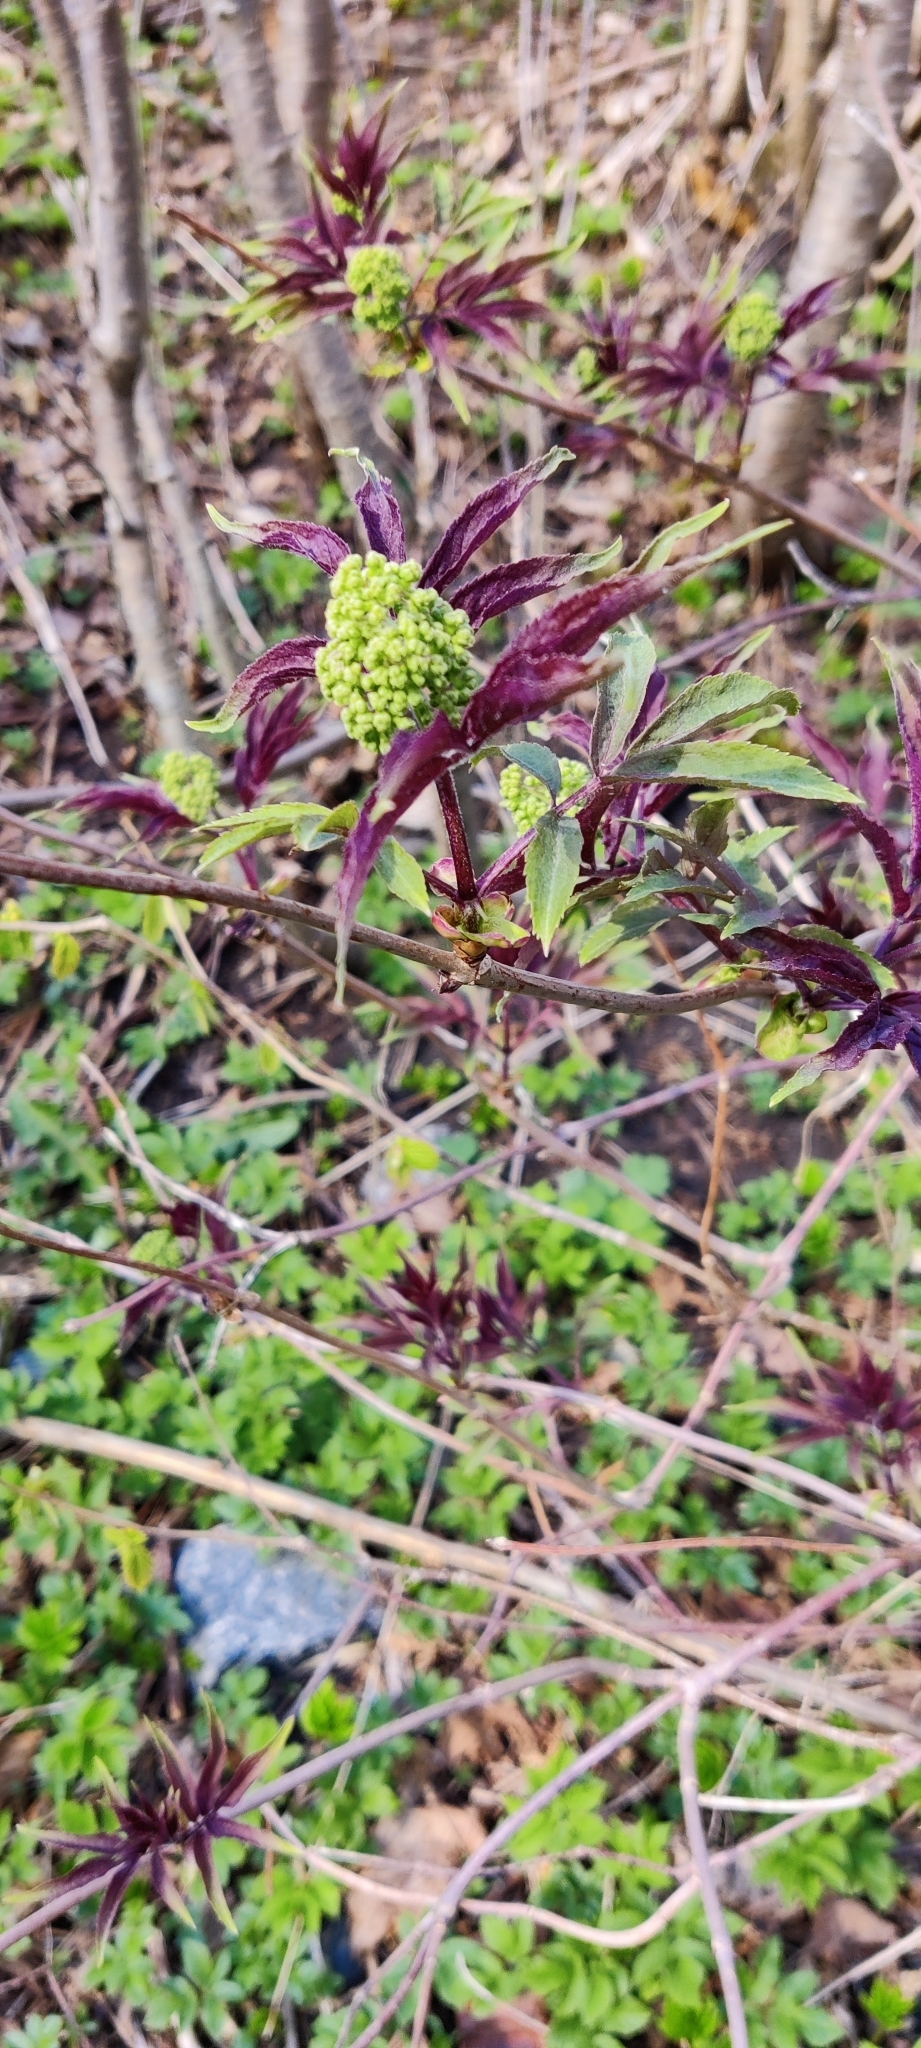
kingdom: Plantae
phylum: Tracheophyta
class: Magnoliopsida
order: Dipsacales
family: Viburnaceae
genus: Sambucus
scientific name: Sambucus racemosa
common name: Red-berried elder
